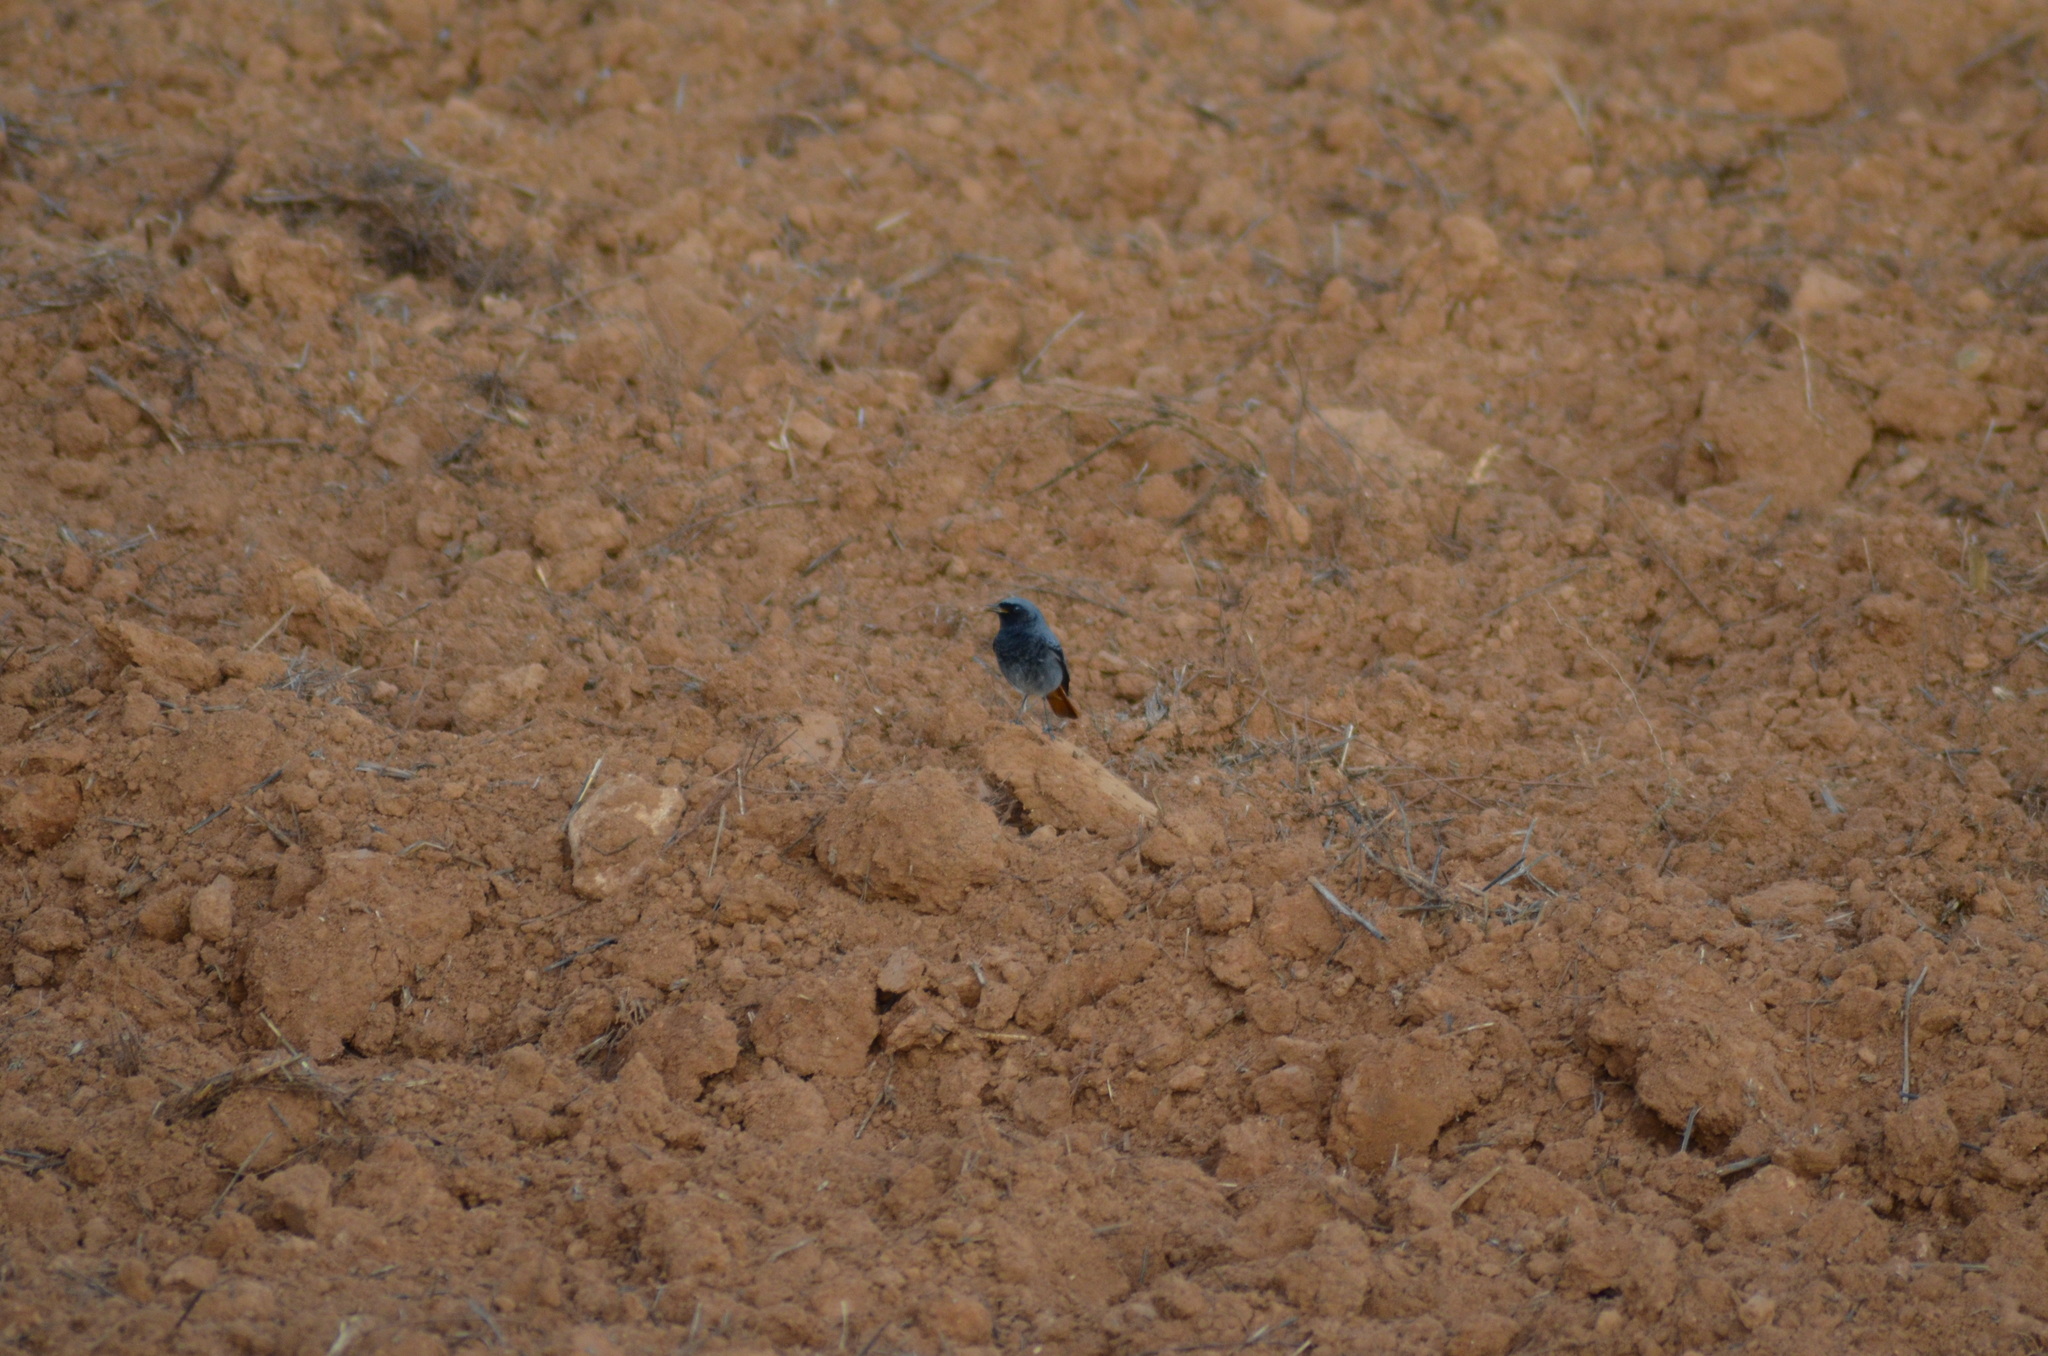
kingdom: Animalia
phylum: Chordata
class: Aves
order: Passeriformes
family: Muscicapidae
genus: Phoenicurus
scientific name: Phoenicurus ochruros
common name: Black redstart
